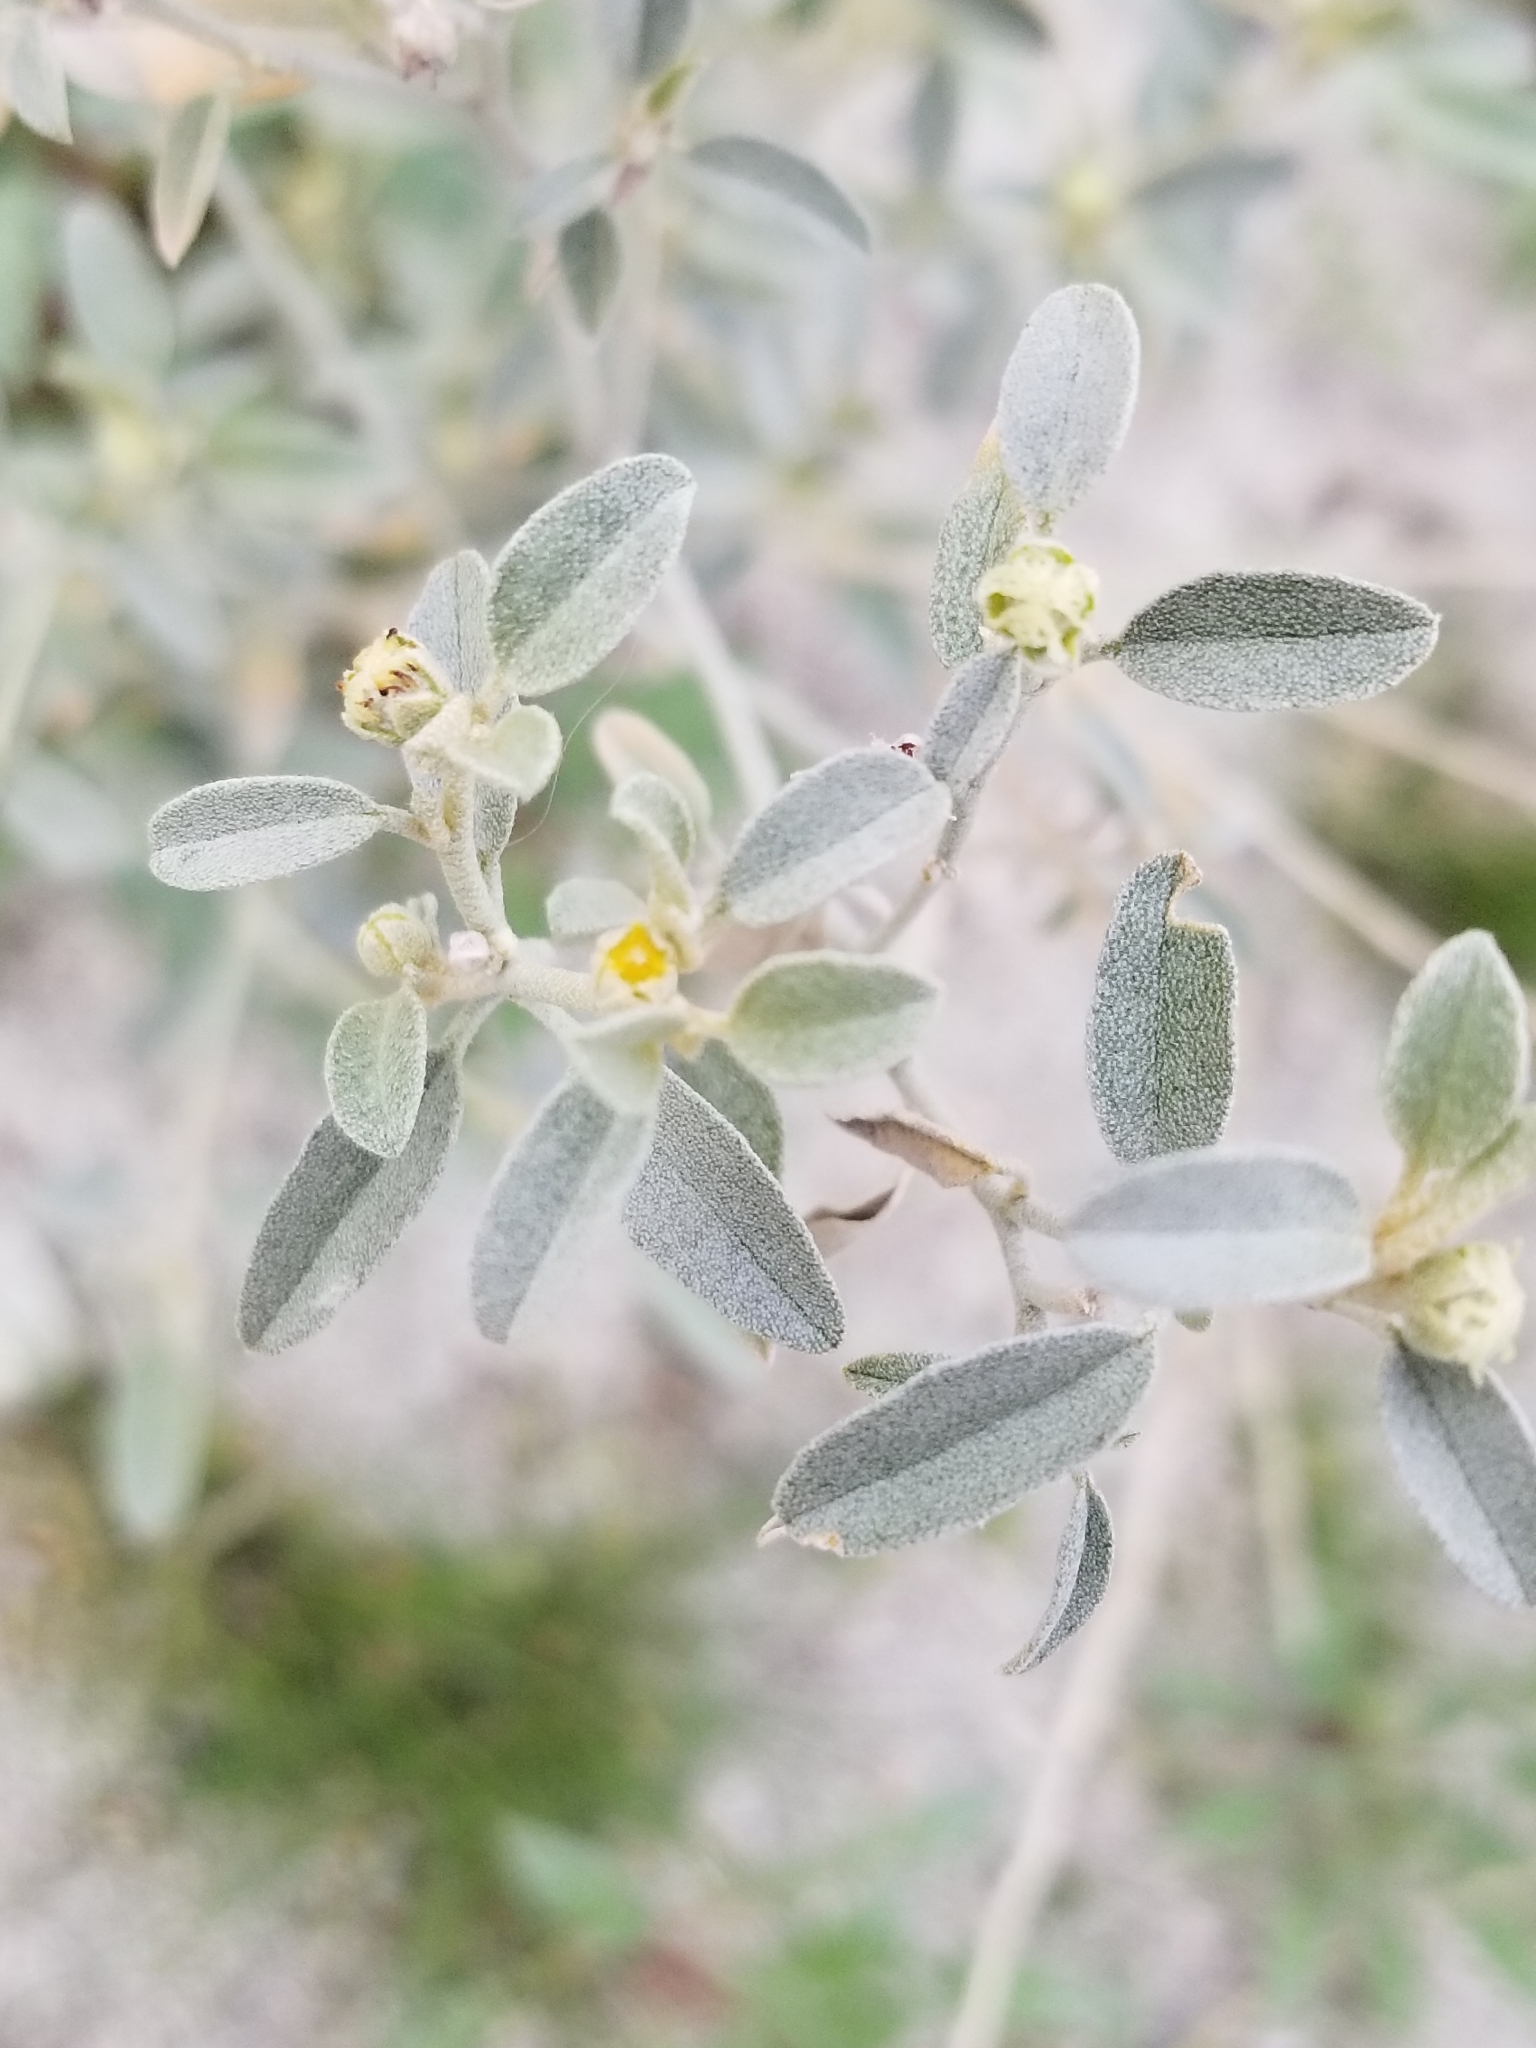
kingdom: Plantae
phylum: Tracheophyta
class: Magnoliopsida
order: Malpighiales
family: Euphorbiaceae
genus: Croton
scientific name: Croton californicus
